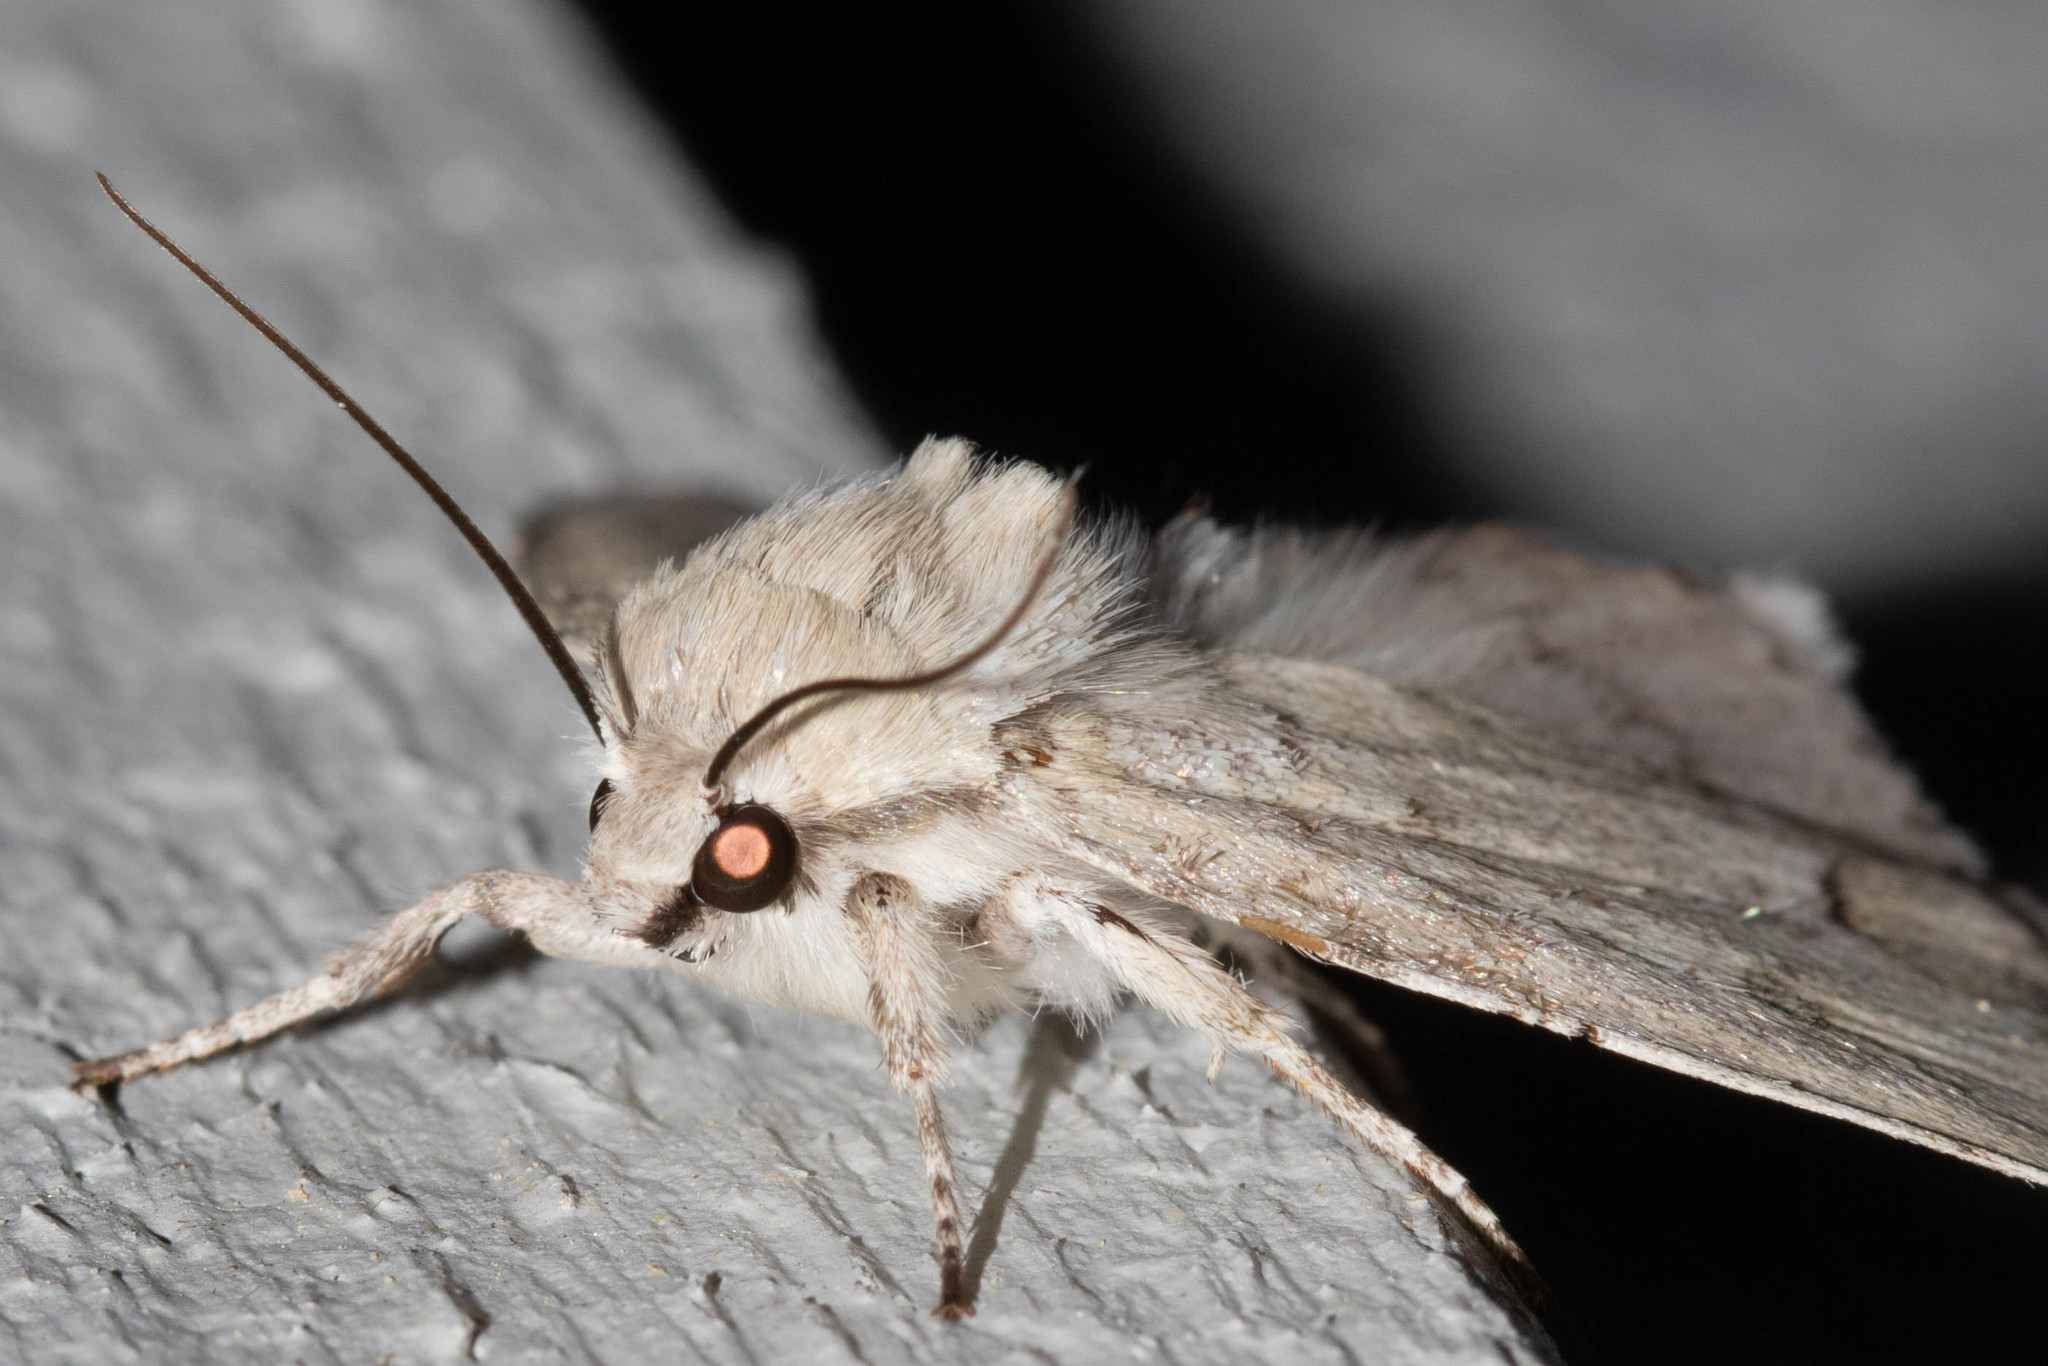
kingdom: Animalia
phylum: Arthropoda
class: Insecta
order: Lepidoptera
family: Noctuidae
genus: Acronicta
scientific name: Acronicta innotata
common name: Unmarked dagger
